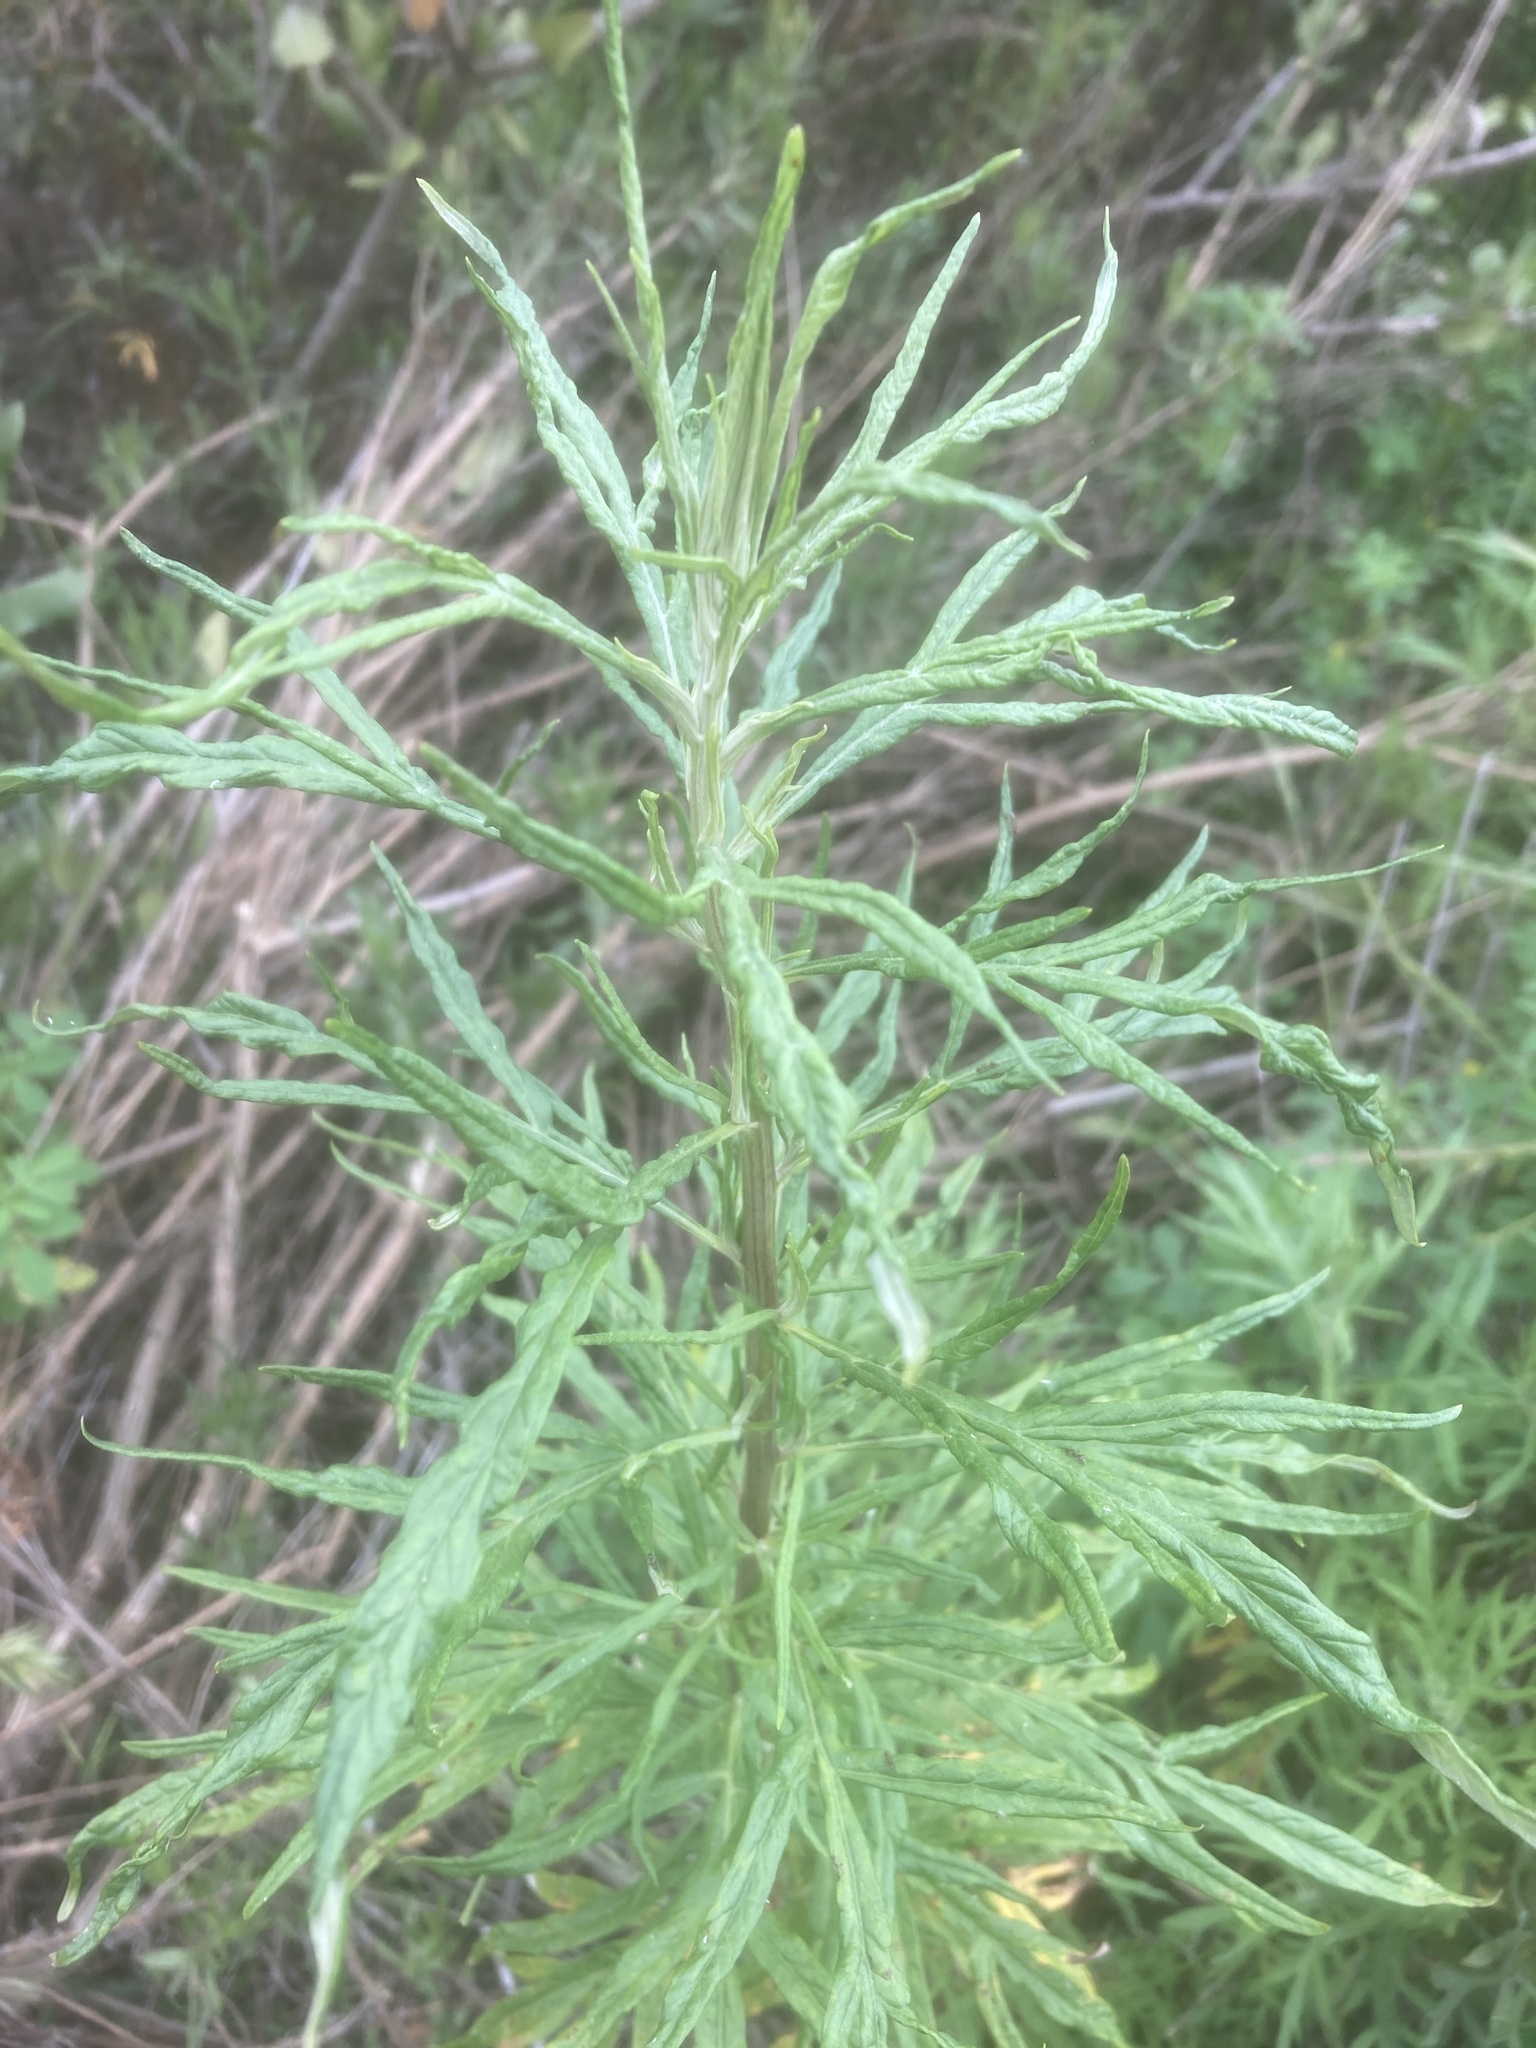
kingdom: Plantae
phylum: Tracheophyta
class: Magnoliopsida
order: Asterales
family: Asteraceae
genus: Artemisia
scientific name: Artemisia palmeri
